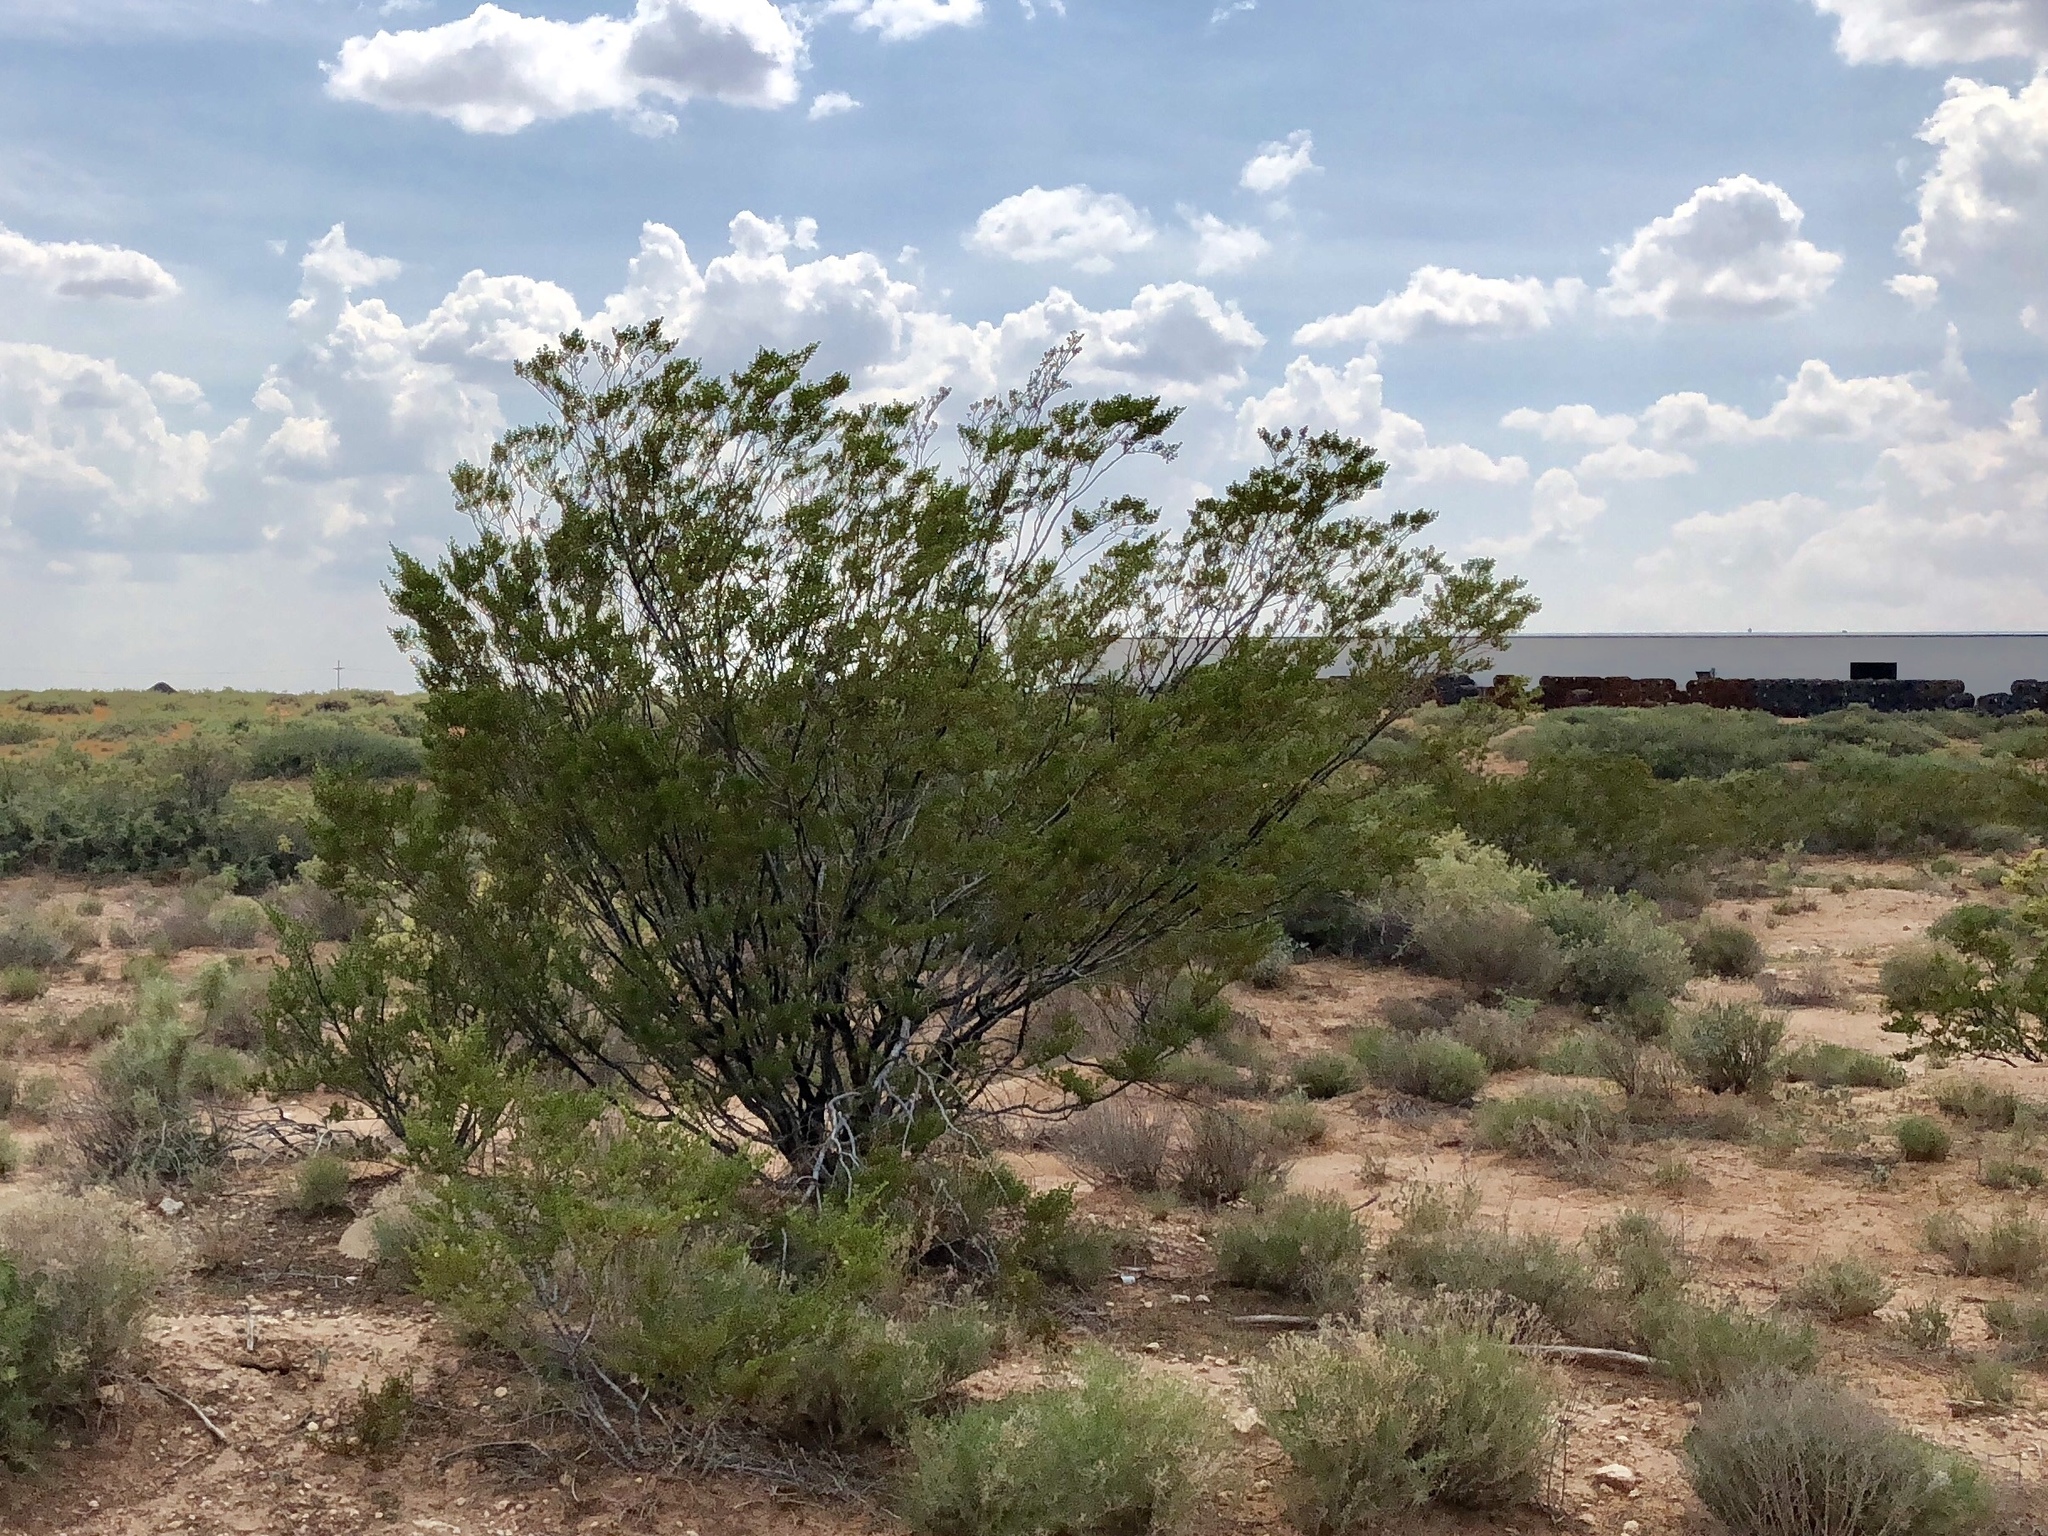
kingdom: Plantae
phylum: Tracheophyta
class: Magnoliopsida
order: Zygophyllales
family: Zygophyllaceae
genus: Larrea
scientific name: Larrea tridentata
